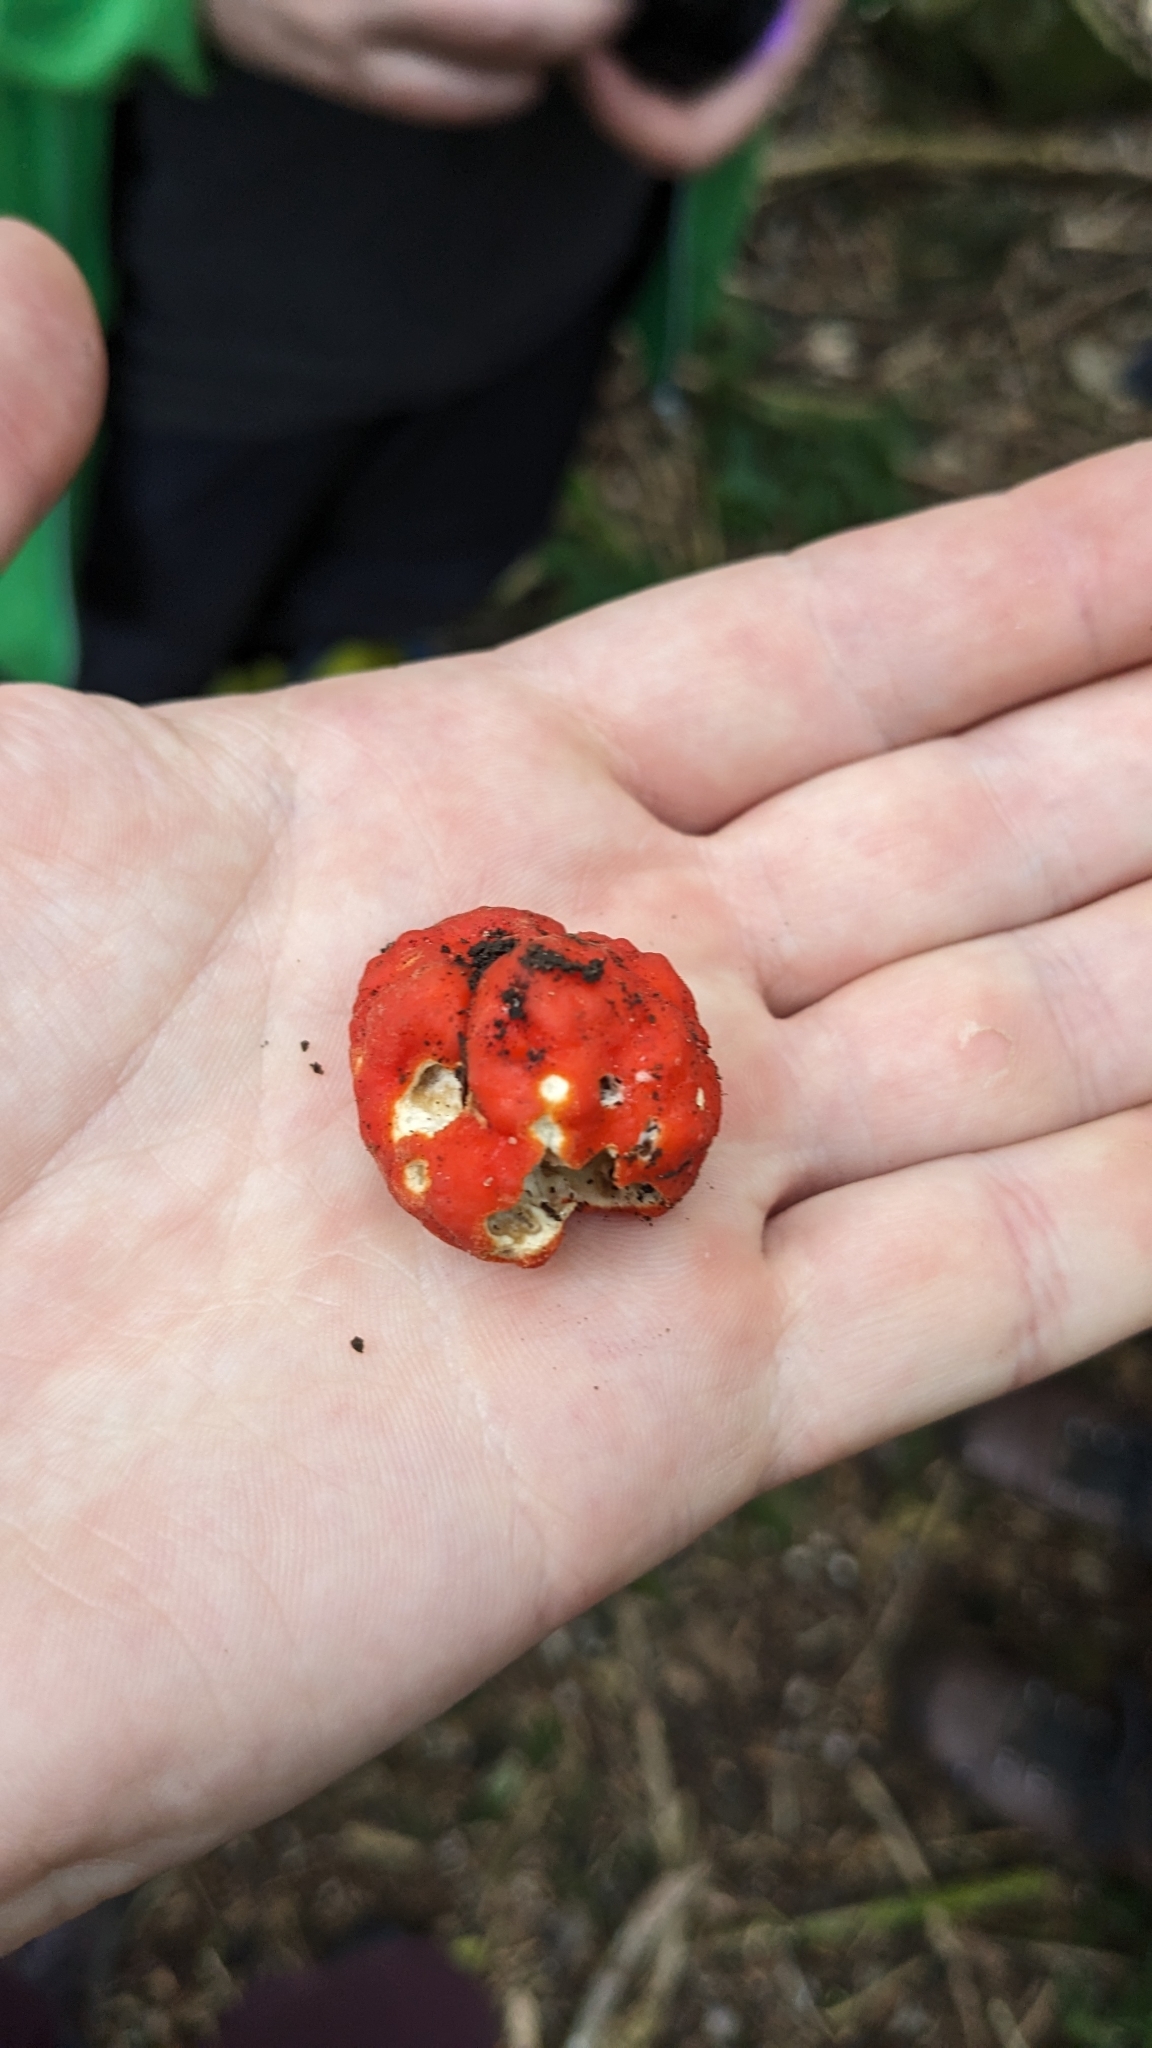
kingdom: Fungi
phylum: Ascomycota
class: Pezizomycetes
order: Pezizales
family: Pyronemataceae
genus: Paurocotylis
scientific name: Paurocotylis pila
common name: Scarlet berry truffle
